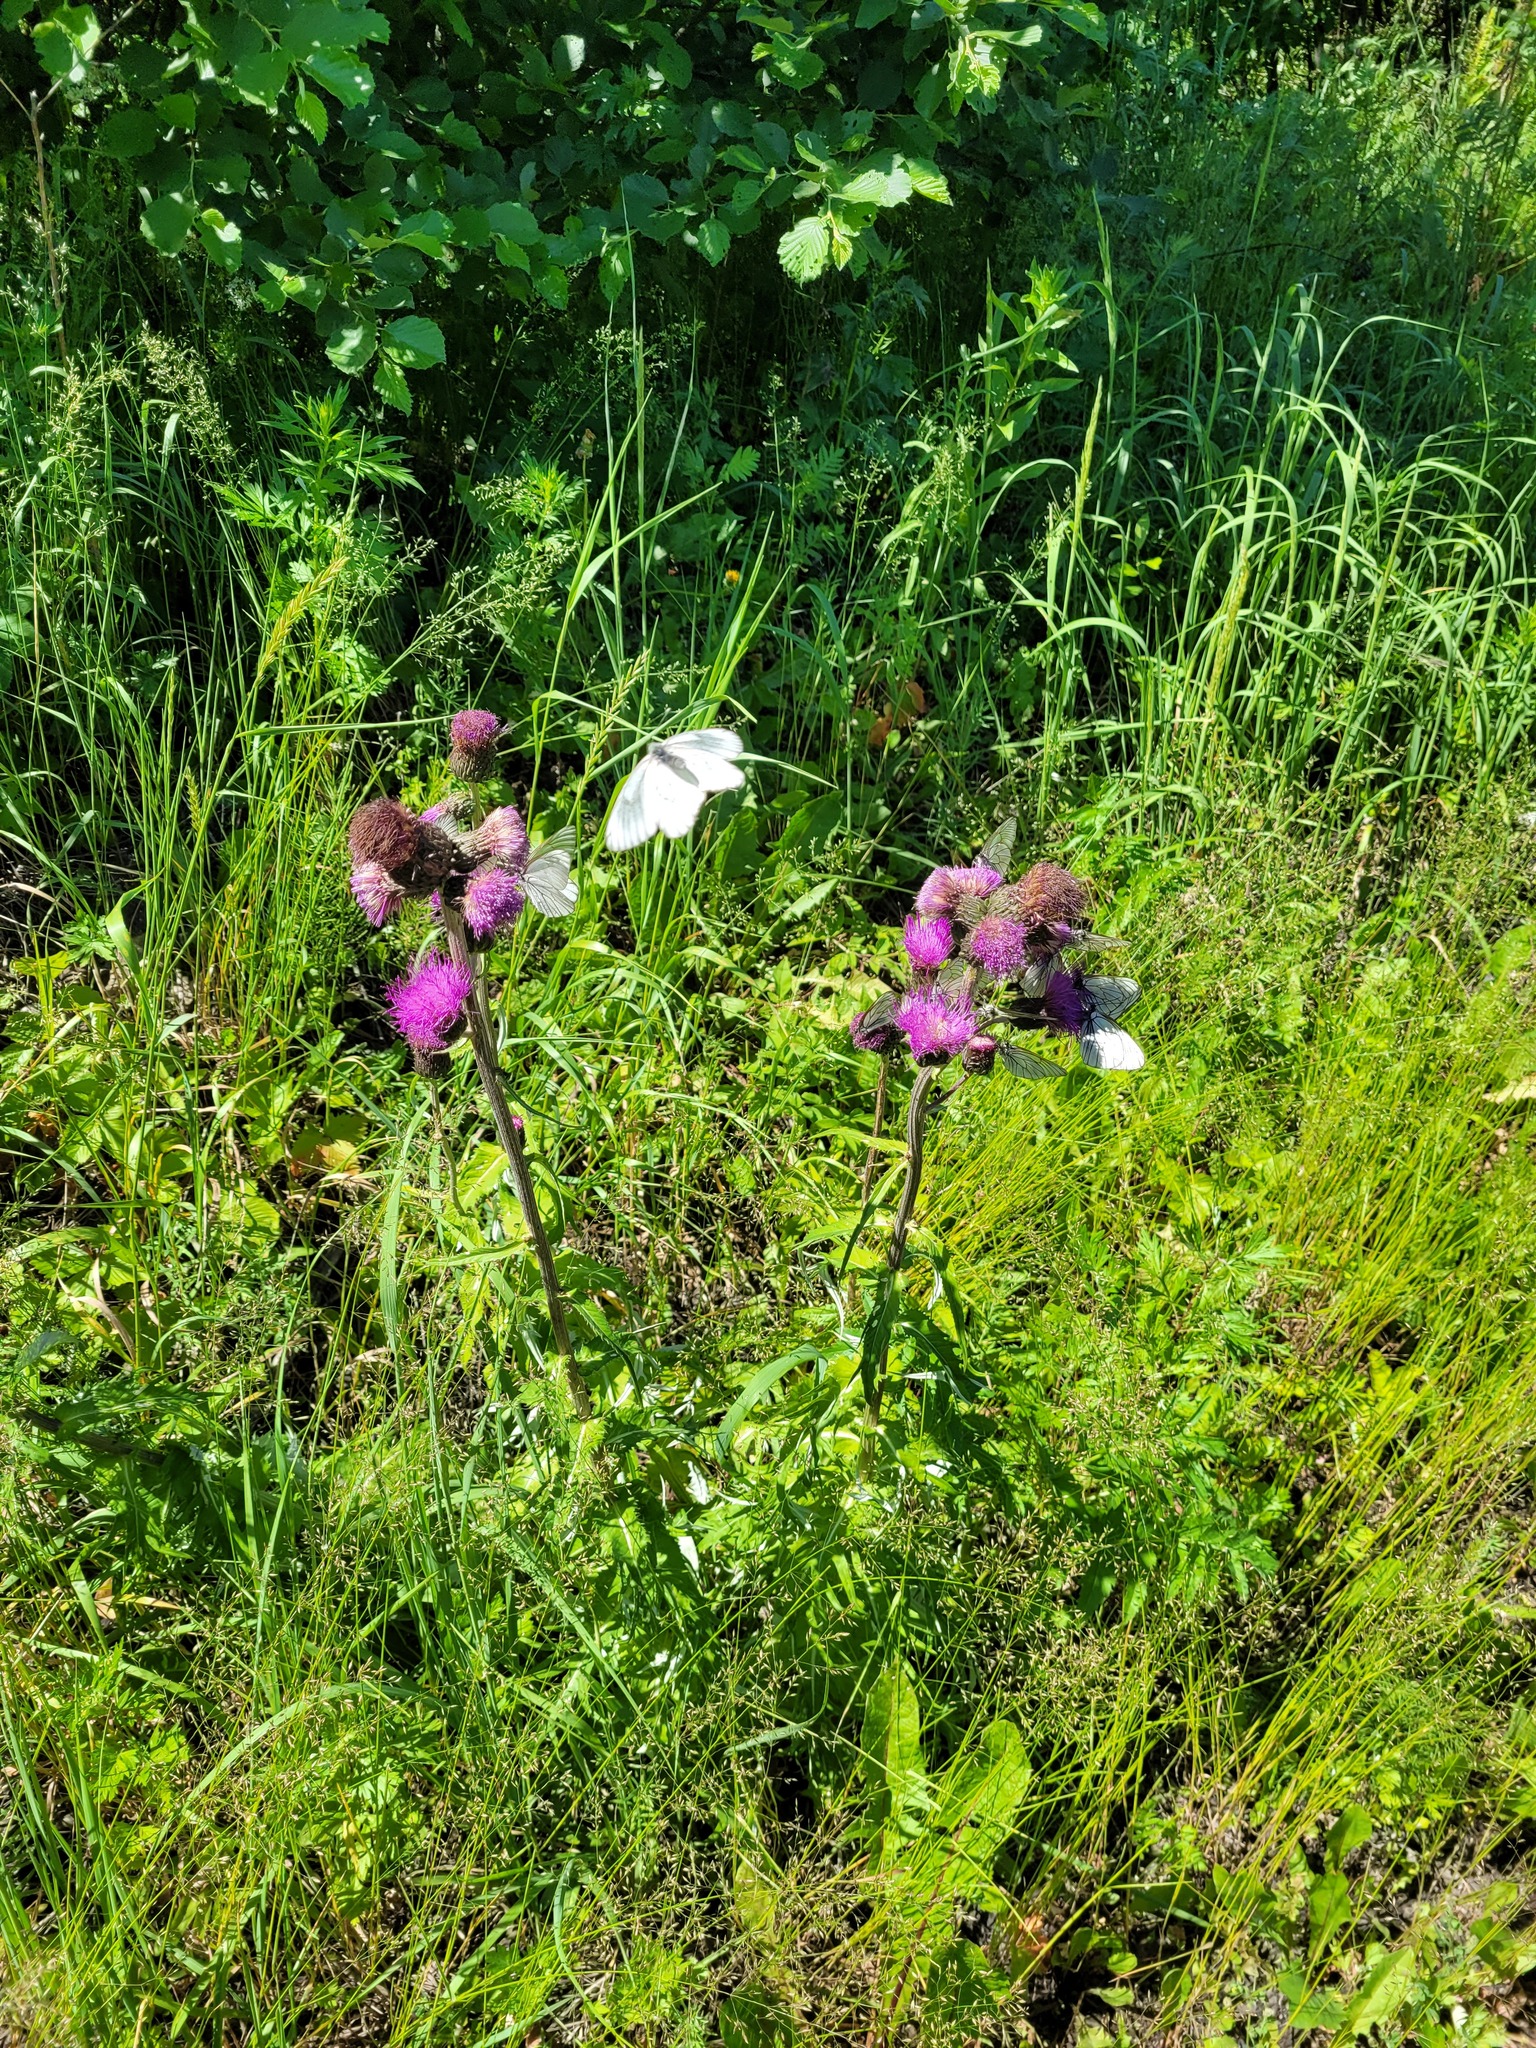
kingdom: Plantae
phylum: Tracheophyta
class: Magnoliopsida
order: Asterales
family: Asteraceae
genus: Cirsium
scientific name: Cirsium heterophyllum
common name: Melancholy thistle
